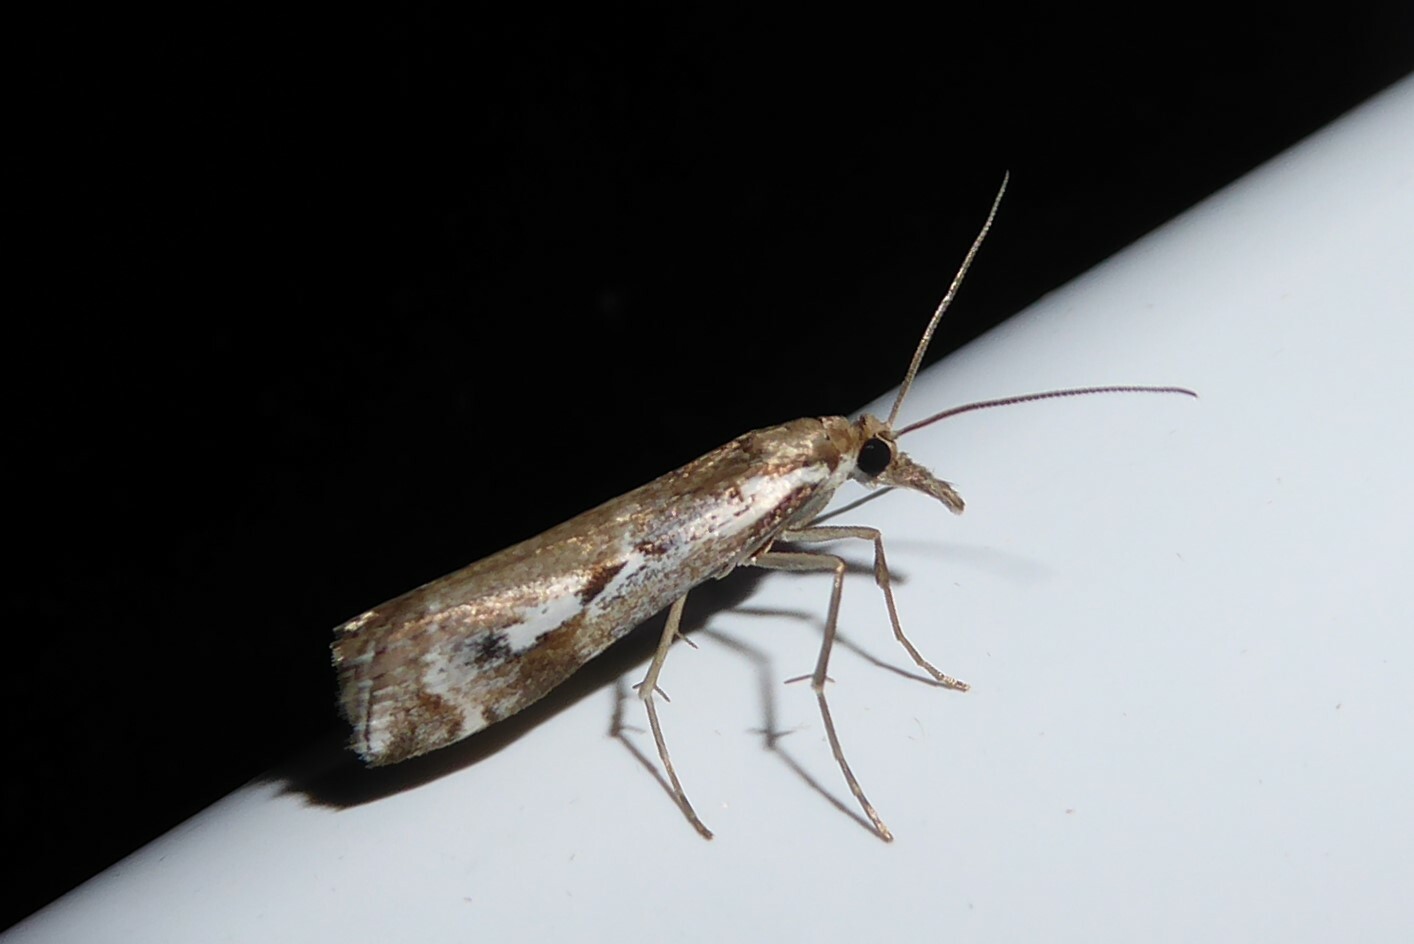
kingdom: Animalia
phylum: Arthropoda
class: Insecta
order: Lepidoptera
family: Crambidae
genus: Orocrambus
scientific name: Orocrambus vulgaris
